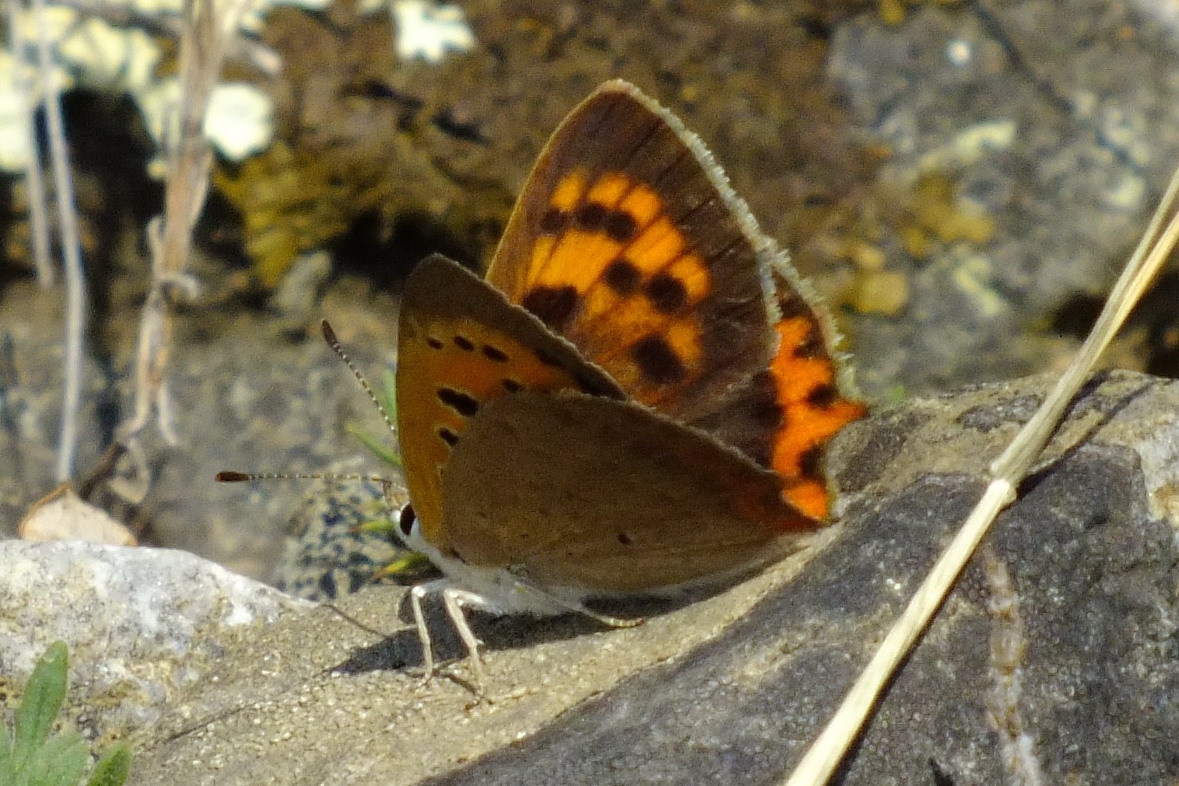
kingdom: Animalia
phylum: Arthropoda
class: Insecta
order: Lepidoptera
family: Lycaenidae
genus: Lycaena
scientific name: Lycaena phlaeas
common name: Small copper
